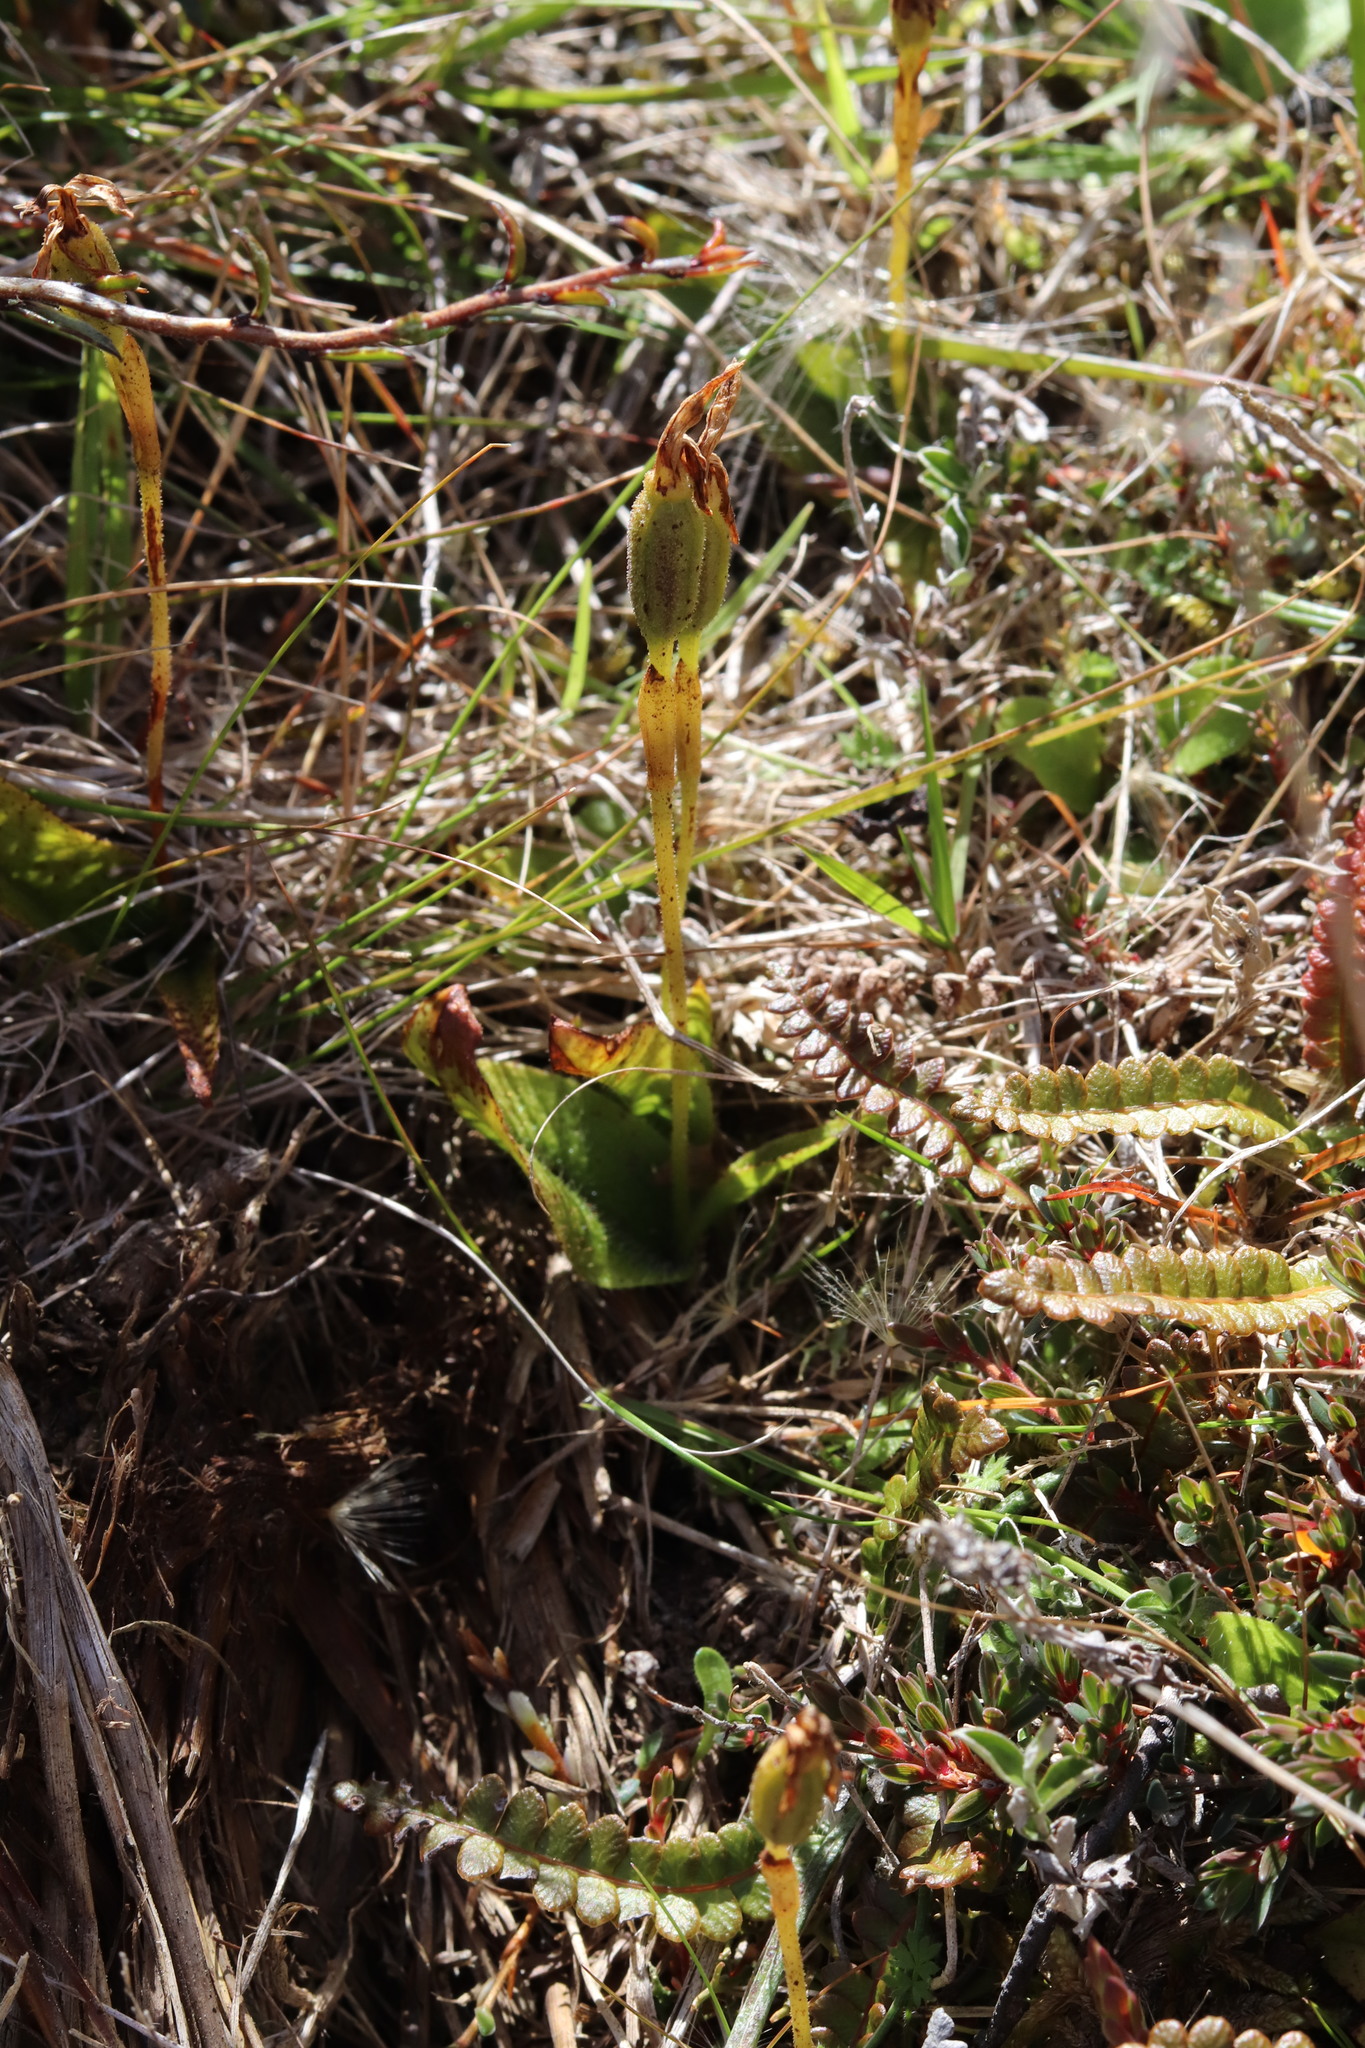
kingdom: Plantae
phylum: Tracheophyta
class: Liliopsida
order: Asparagales
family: Orchidaceae
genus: Aporostylis
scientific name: Aporostylis bifolia
